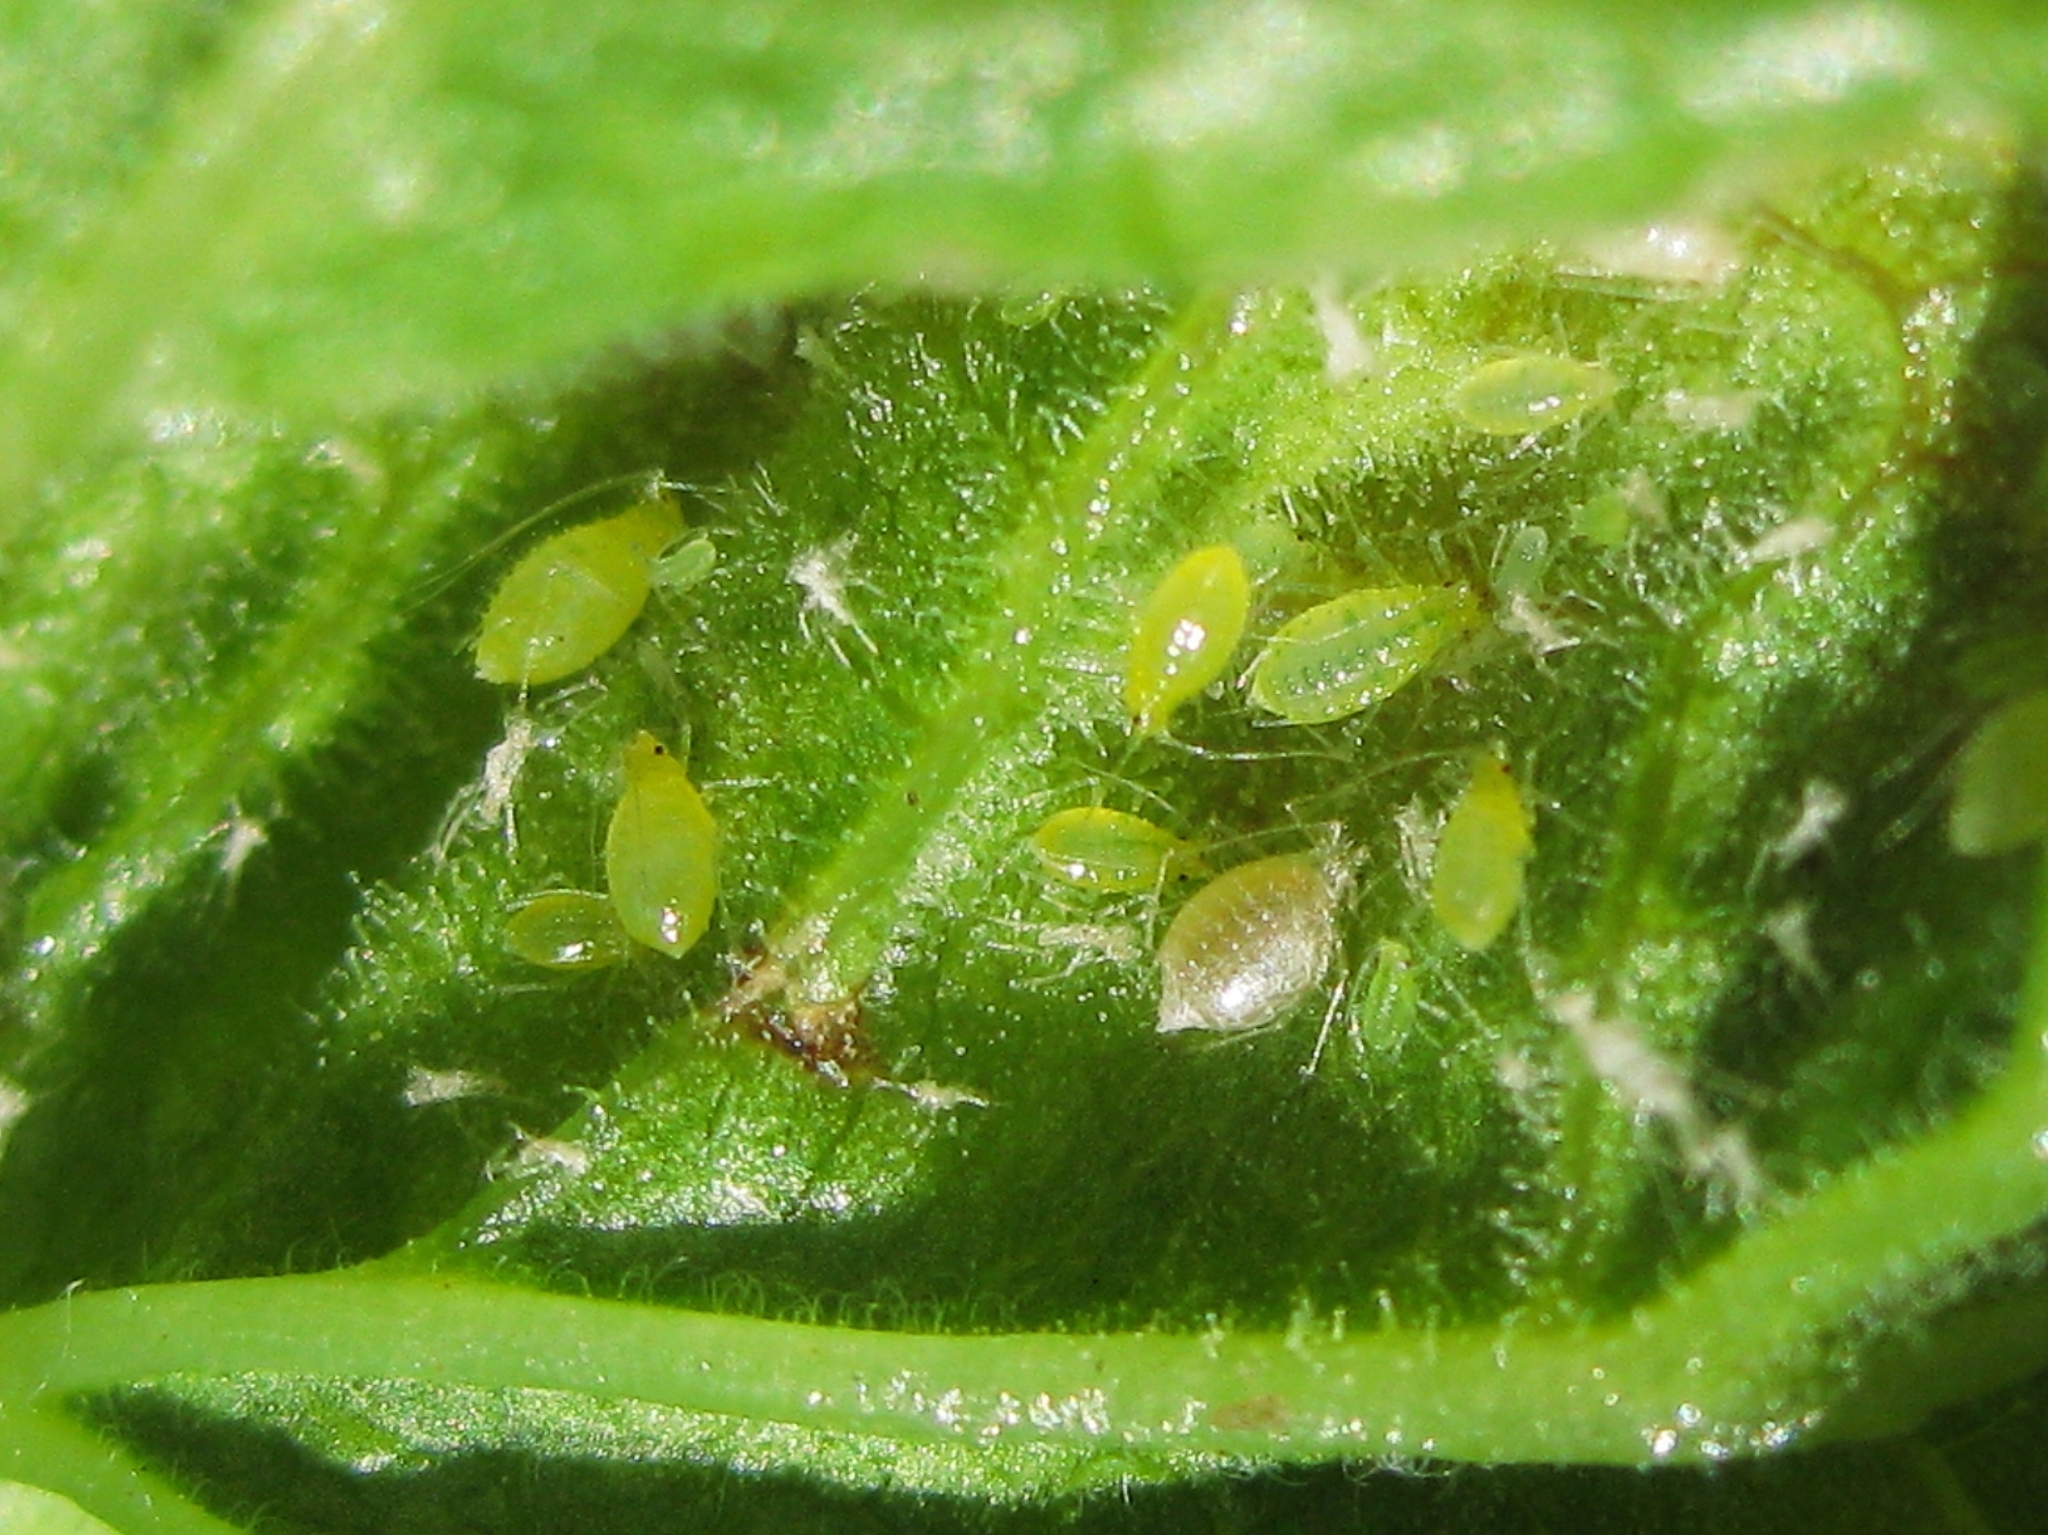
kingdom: Animalia
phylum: Arthropoda
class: Insecta
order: Hemiptera
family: Aphididae
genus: Cryptomyzus
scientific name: Cryptomyzus ribis
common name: Currant aphid
